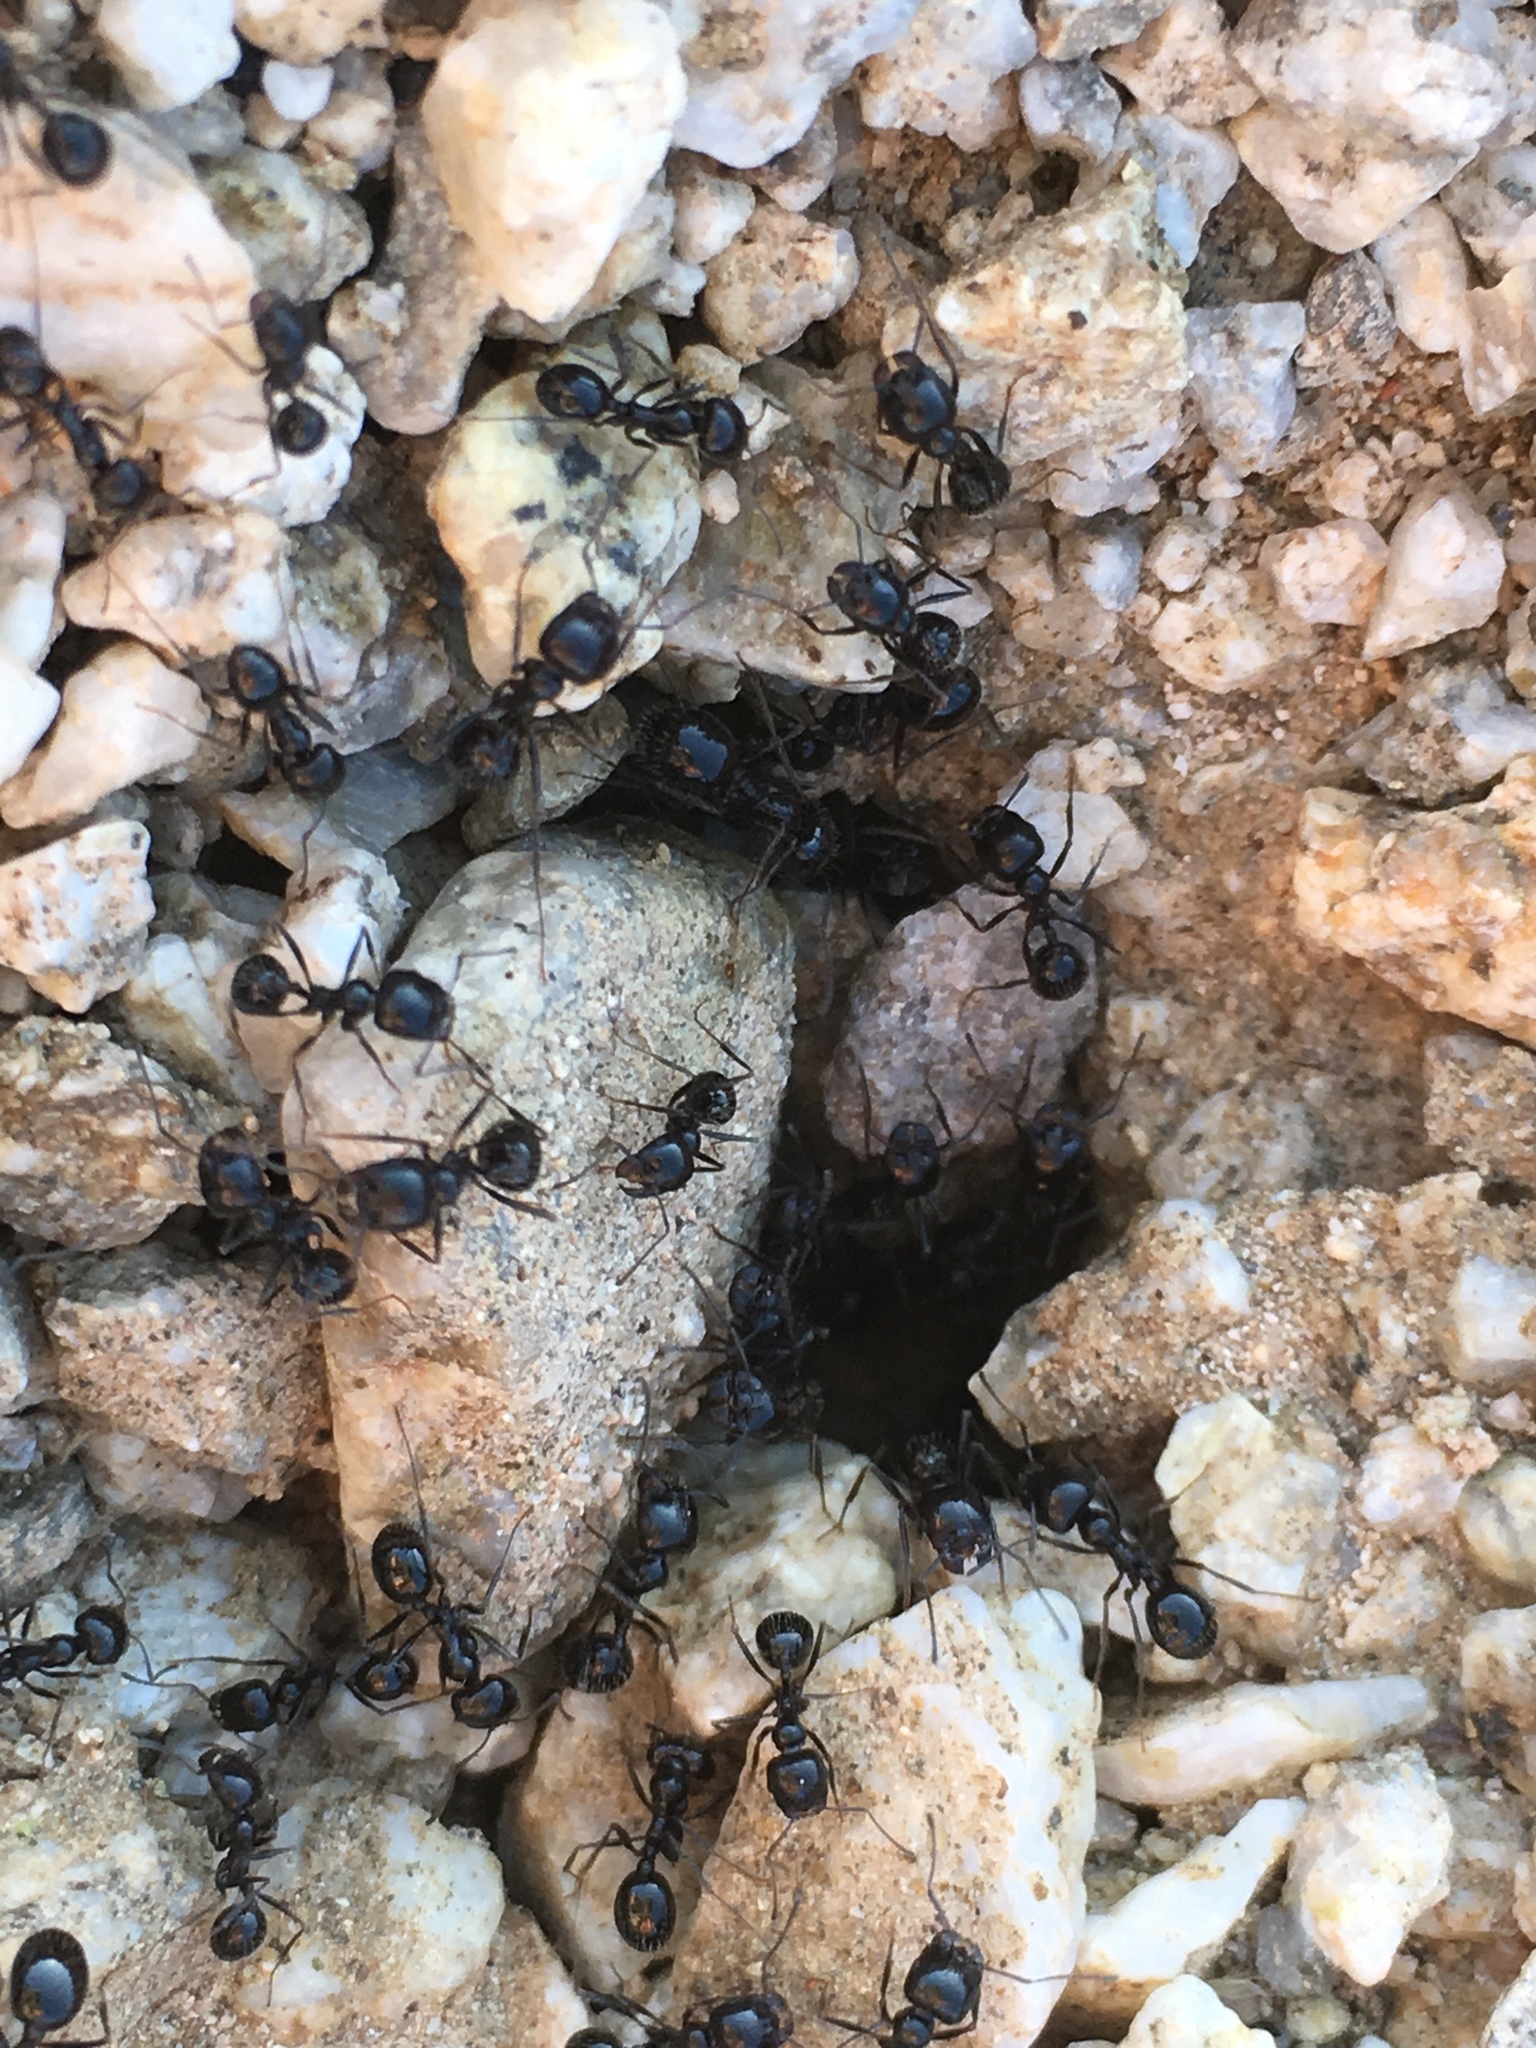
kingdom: Animalia
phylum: Arthropoda
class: Insecta
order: Hymenoptera
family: Formicidae
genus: Messor
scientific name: Messor pergandei
